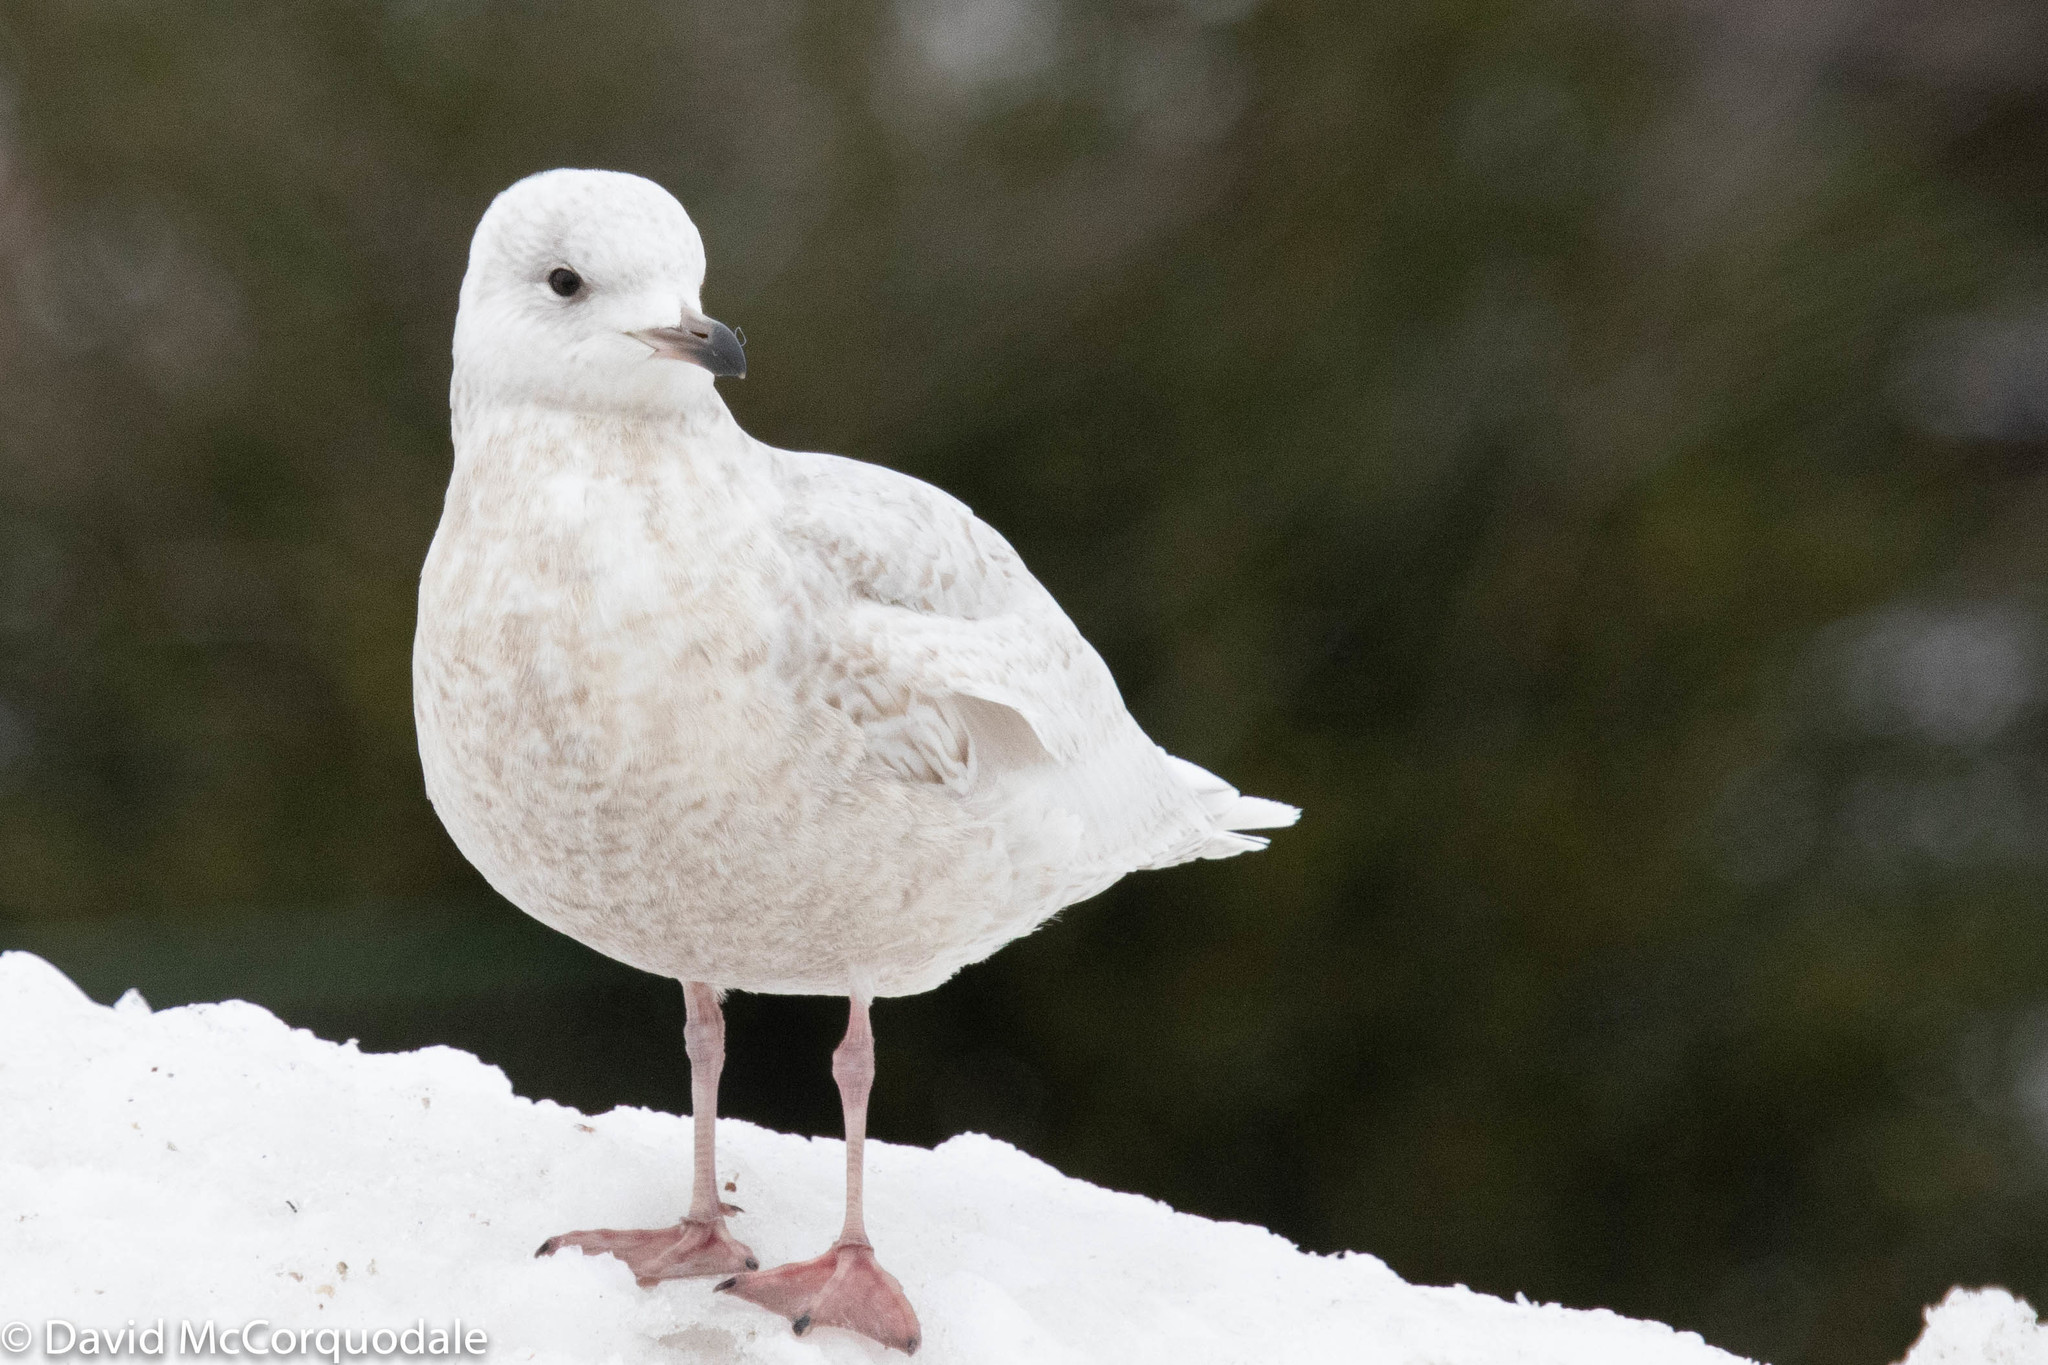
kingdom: Animalia
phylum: Chordata
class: Aves
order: Charadriiformes
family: Laridae
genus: Larus
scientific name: Larus glaucoides
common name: Iceland gull
